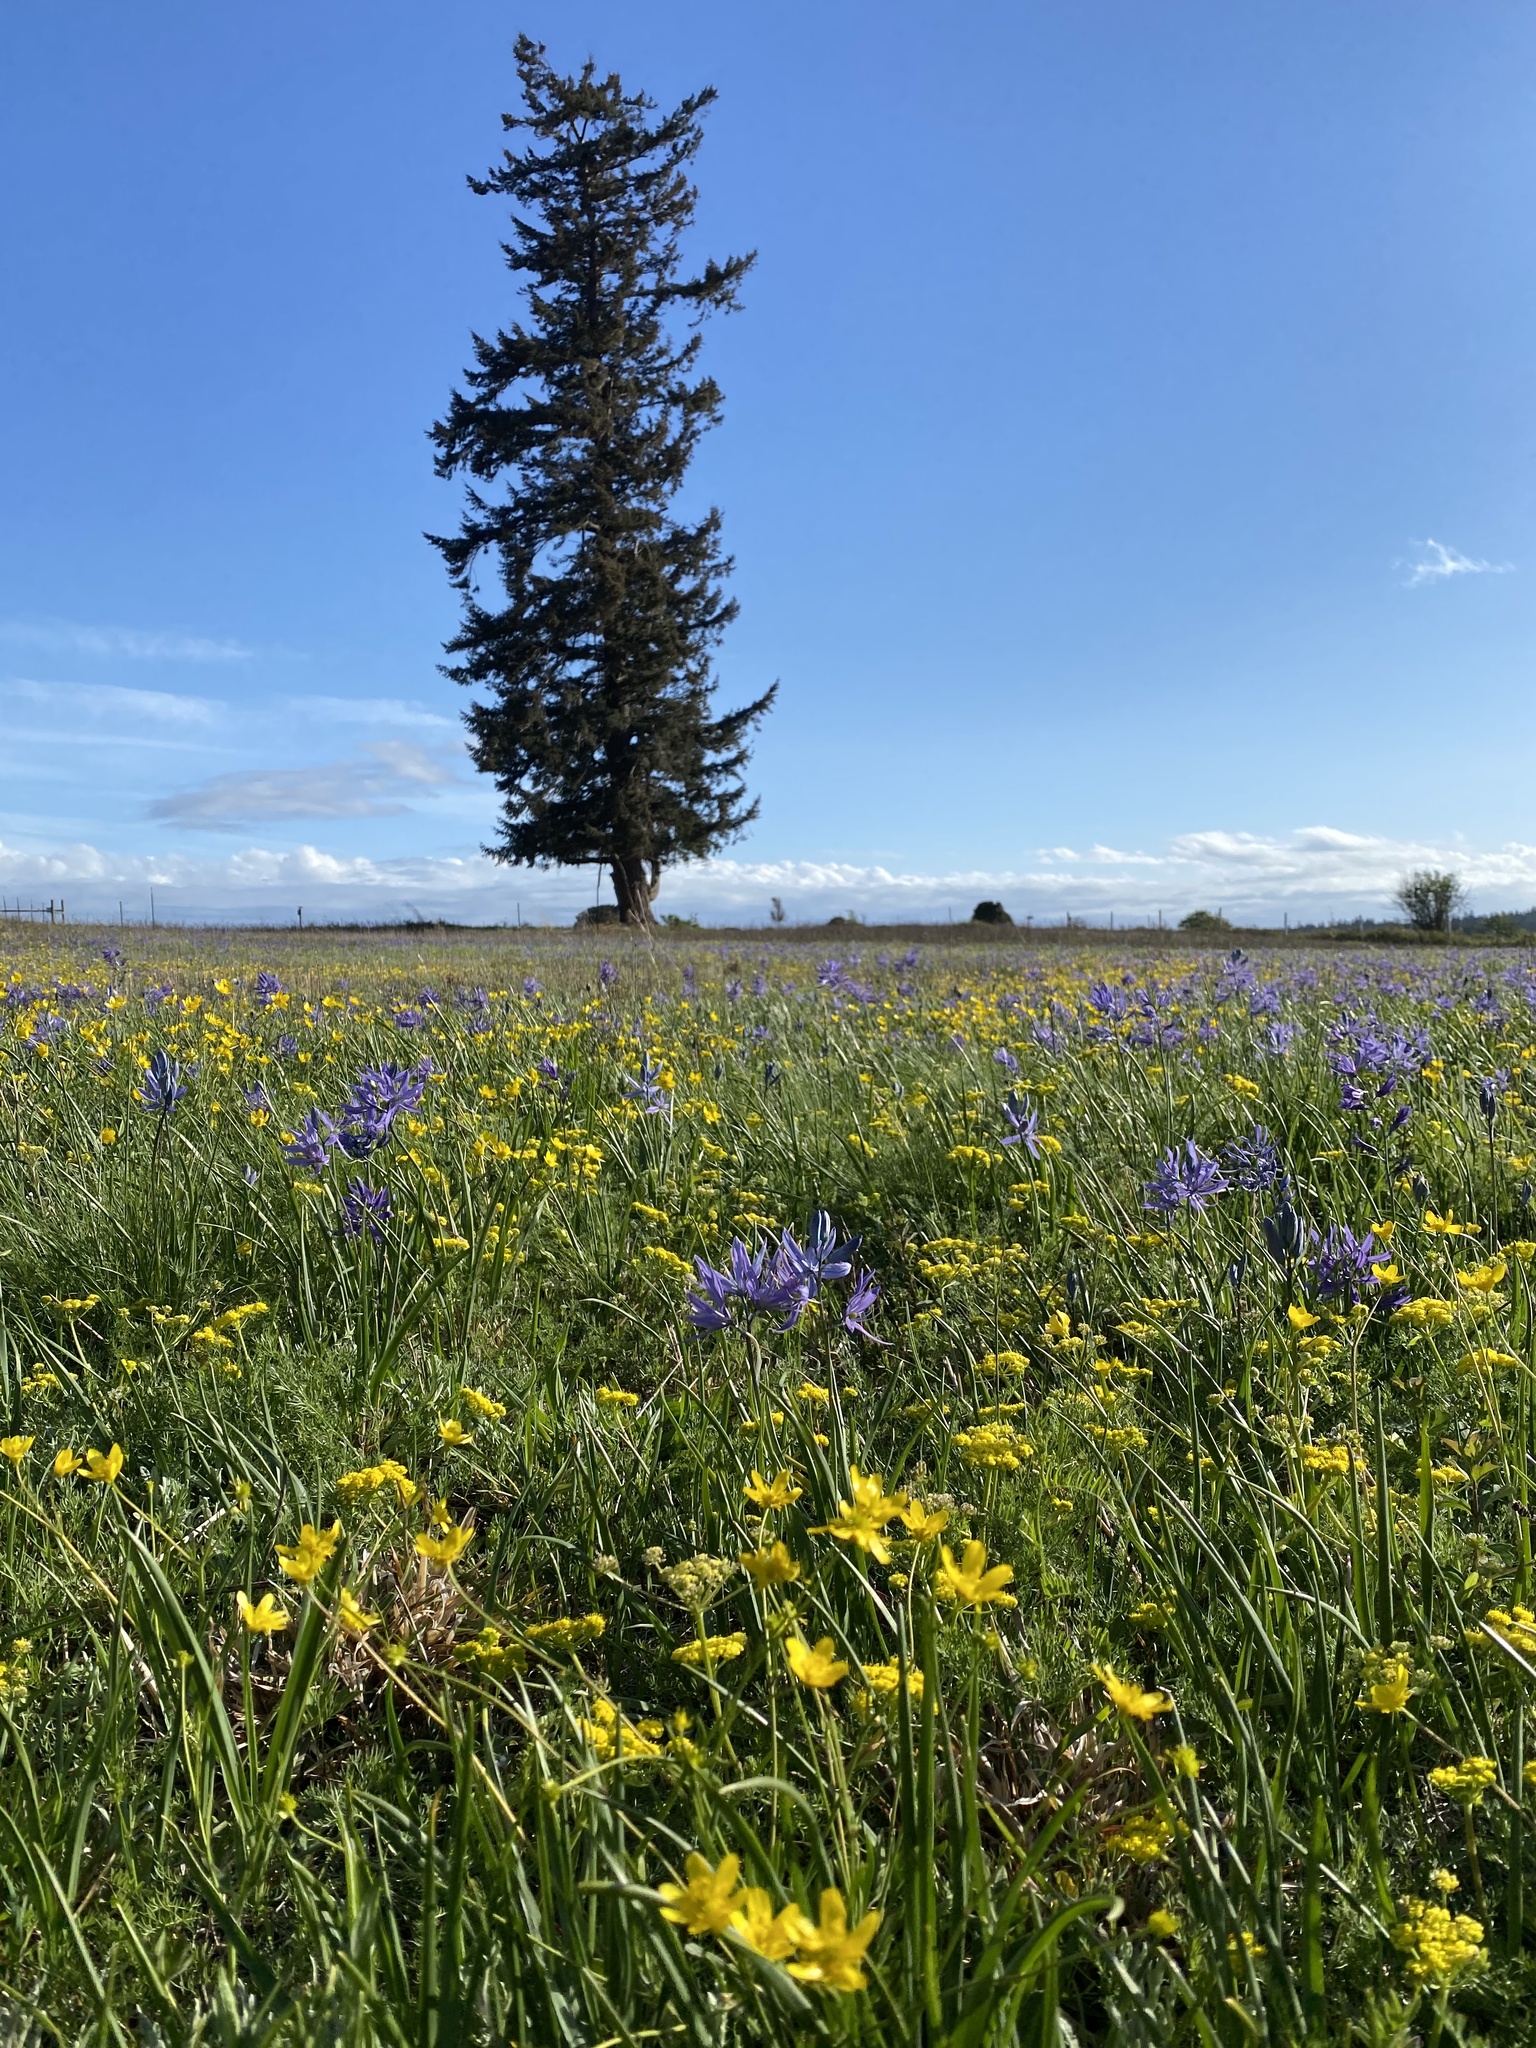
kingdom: Plantae
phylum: Tracheophyta
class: Magnoliopsida
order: Apiales
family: Apiaceae
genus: Lomatium
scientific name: Lomatium utriculatum
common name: Fine-leaf desert-parsley
